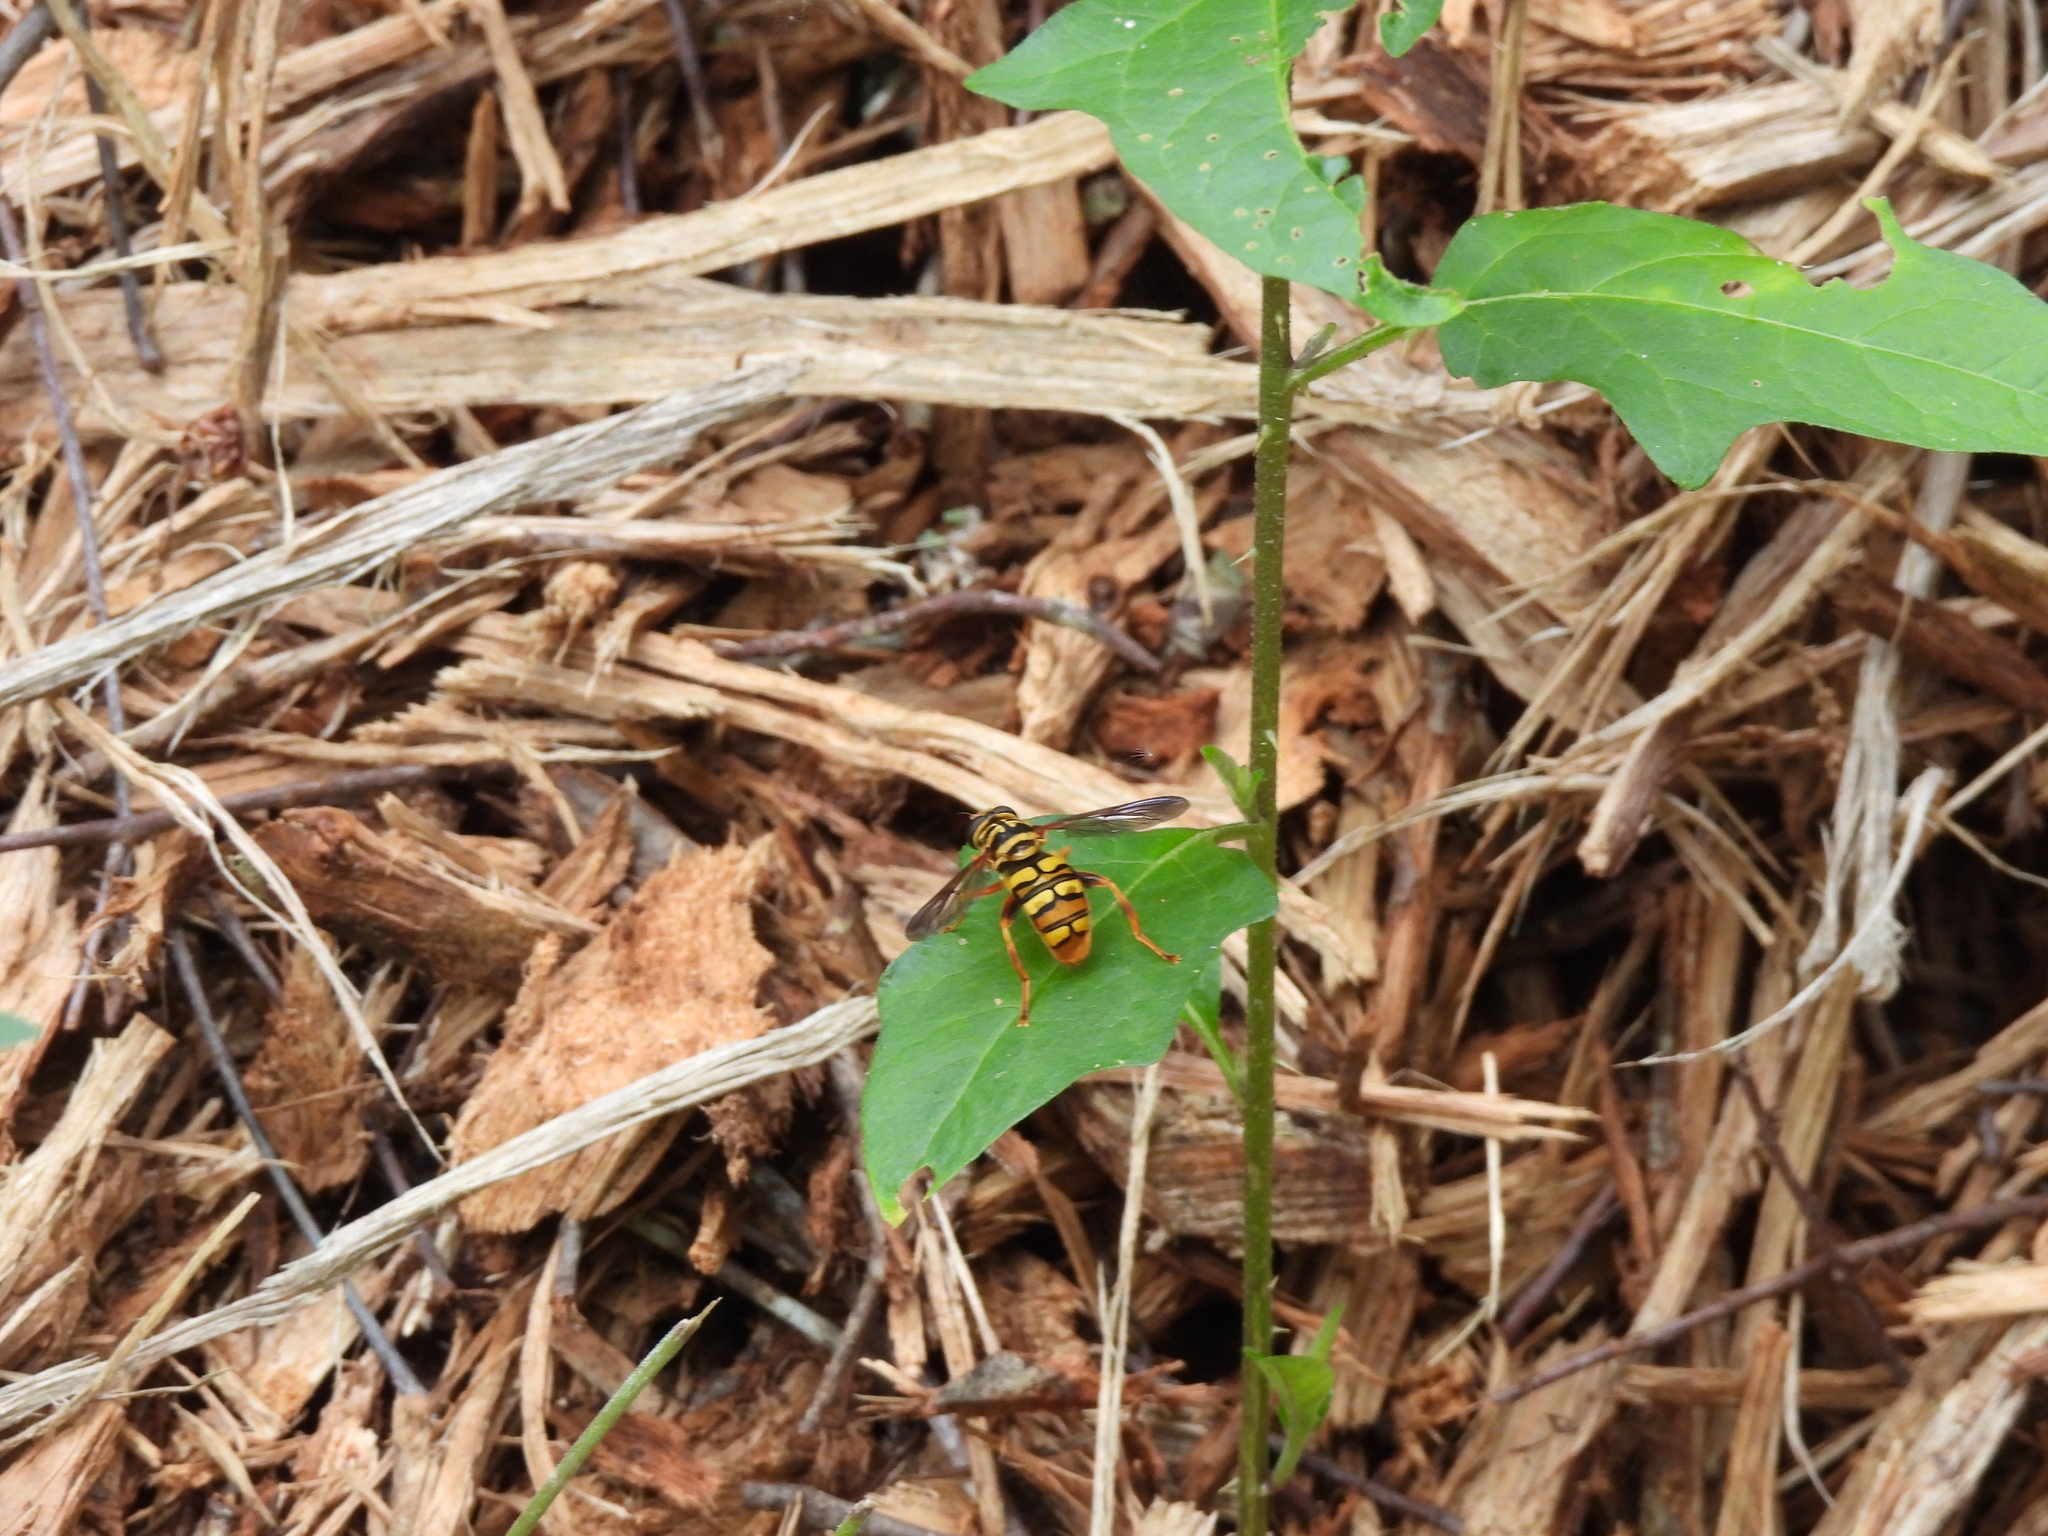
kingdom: Animalia
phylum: Arthropoda
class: Insecta
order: Diptera
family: Syrphidae
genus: Milesia
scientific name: Milesia virginiensis
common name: Virginia giant
